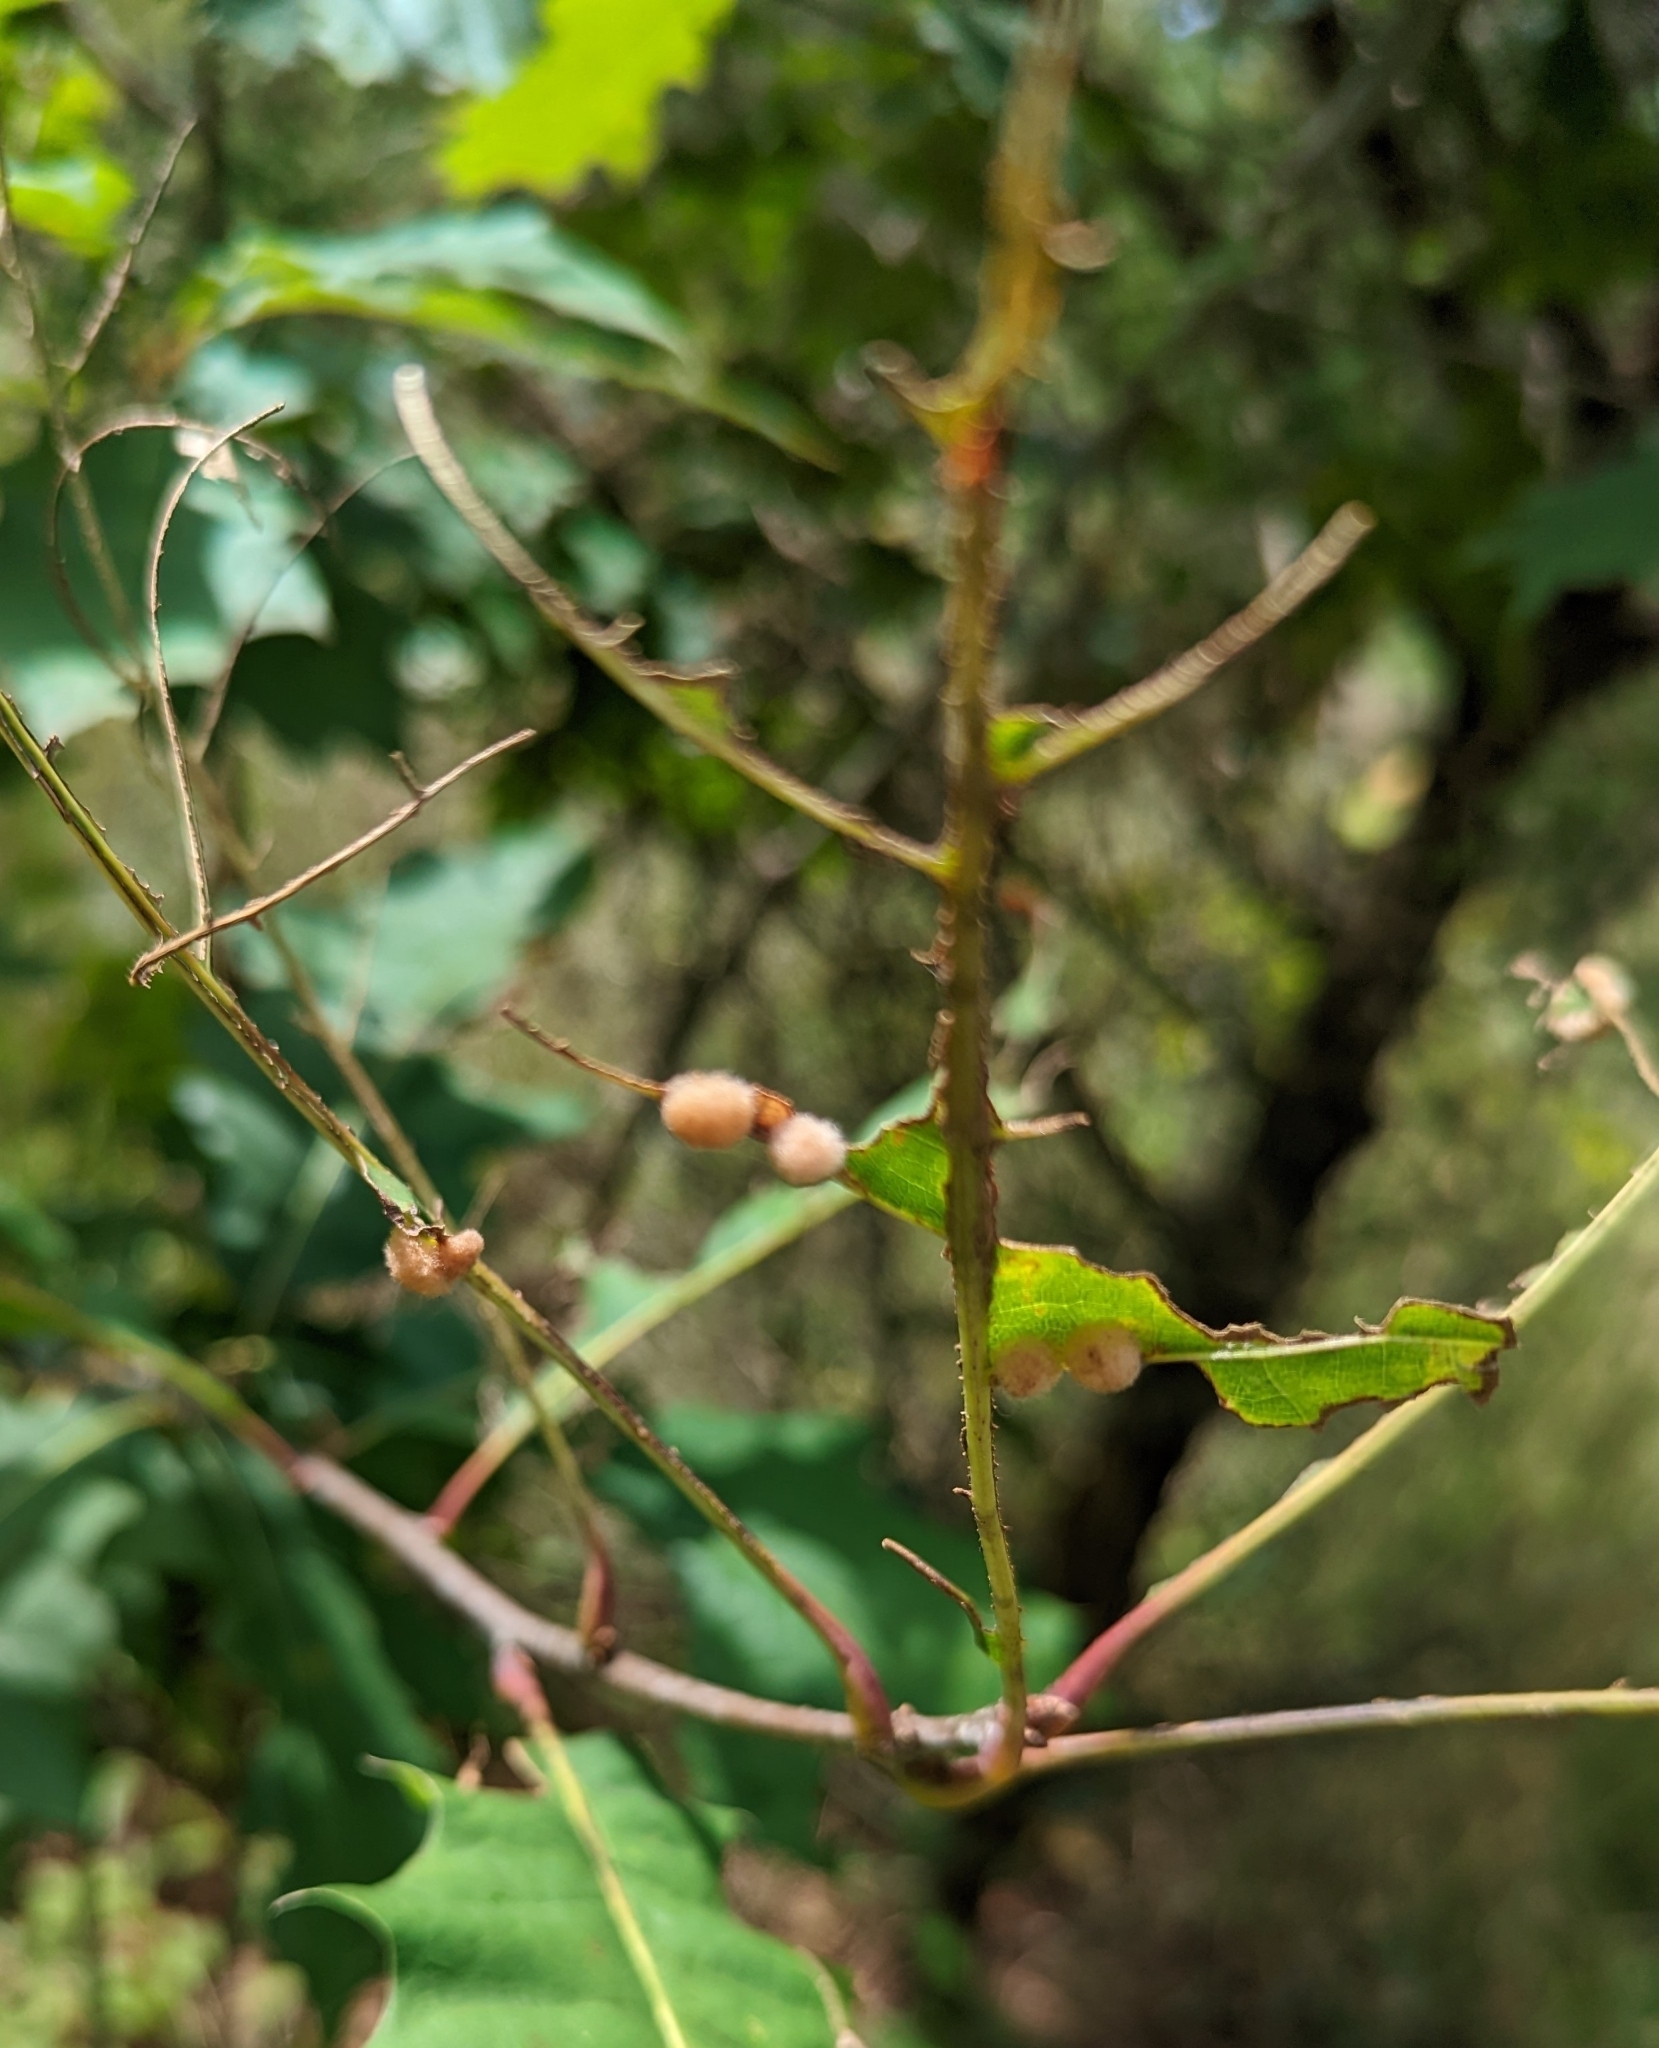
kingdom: Animalia
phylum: Arthropoda
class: Insecta
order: Hymenoptera
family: Cynipidae
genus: Callirhytis
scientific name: Callirhytis
